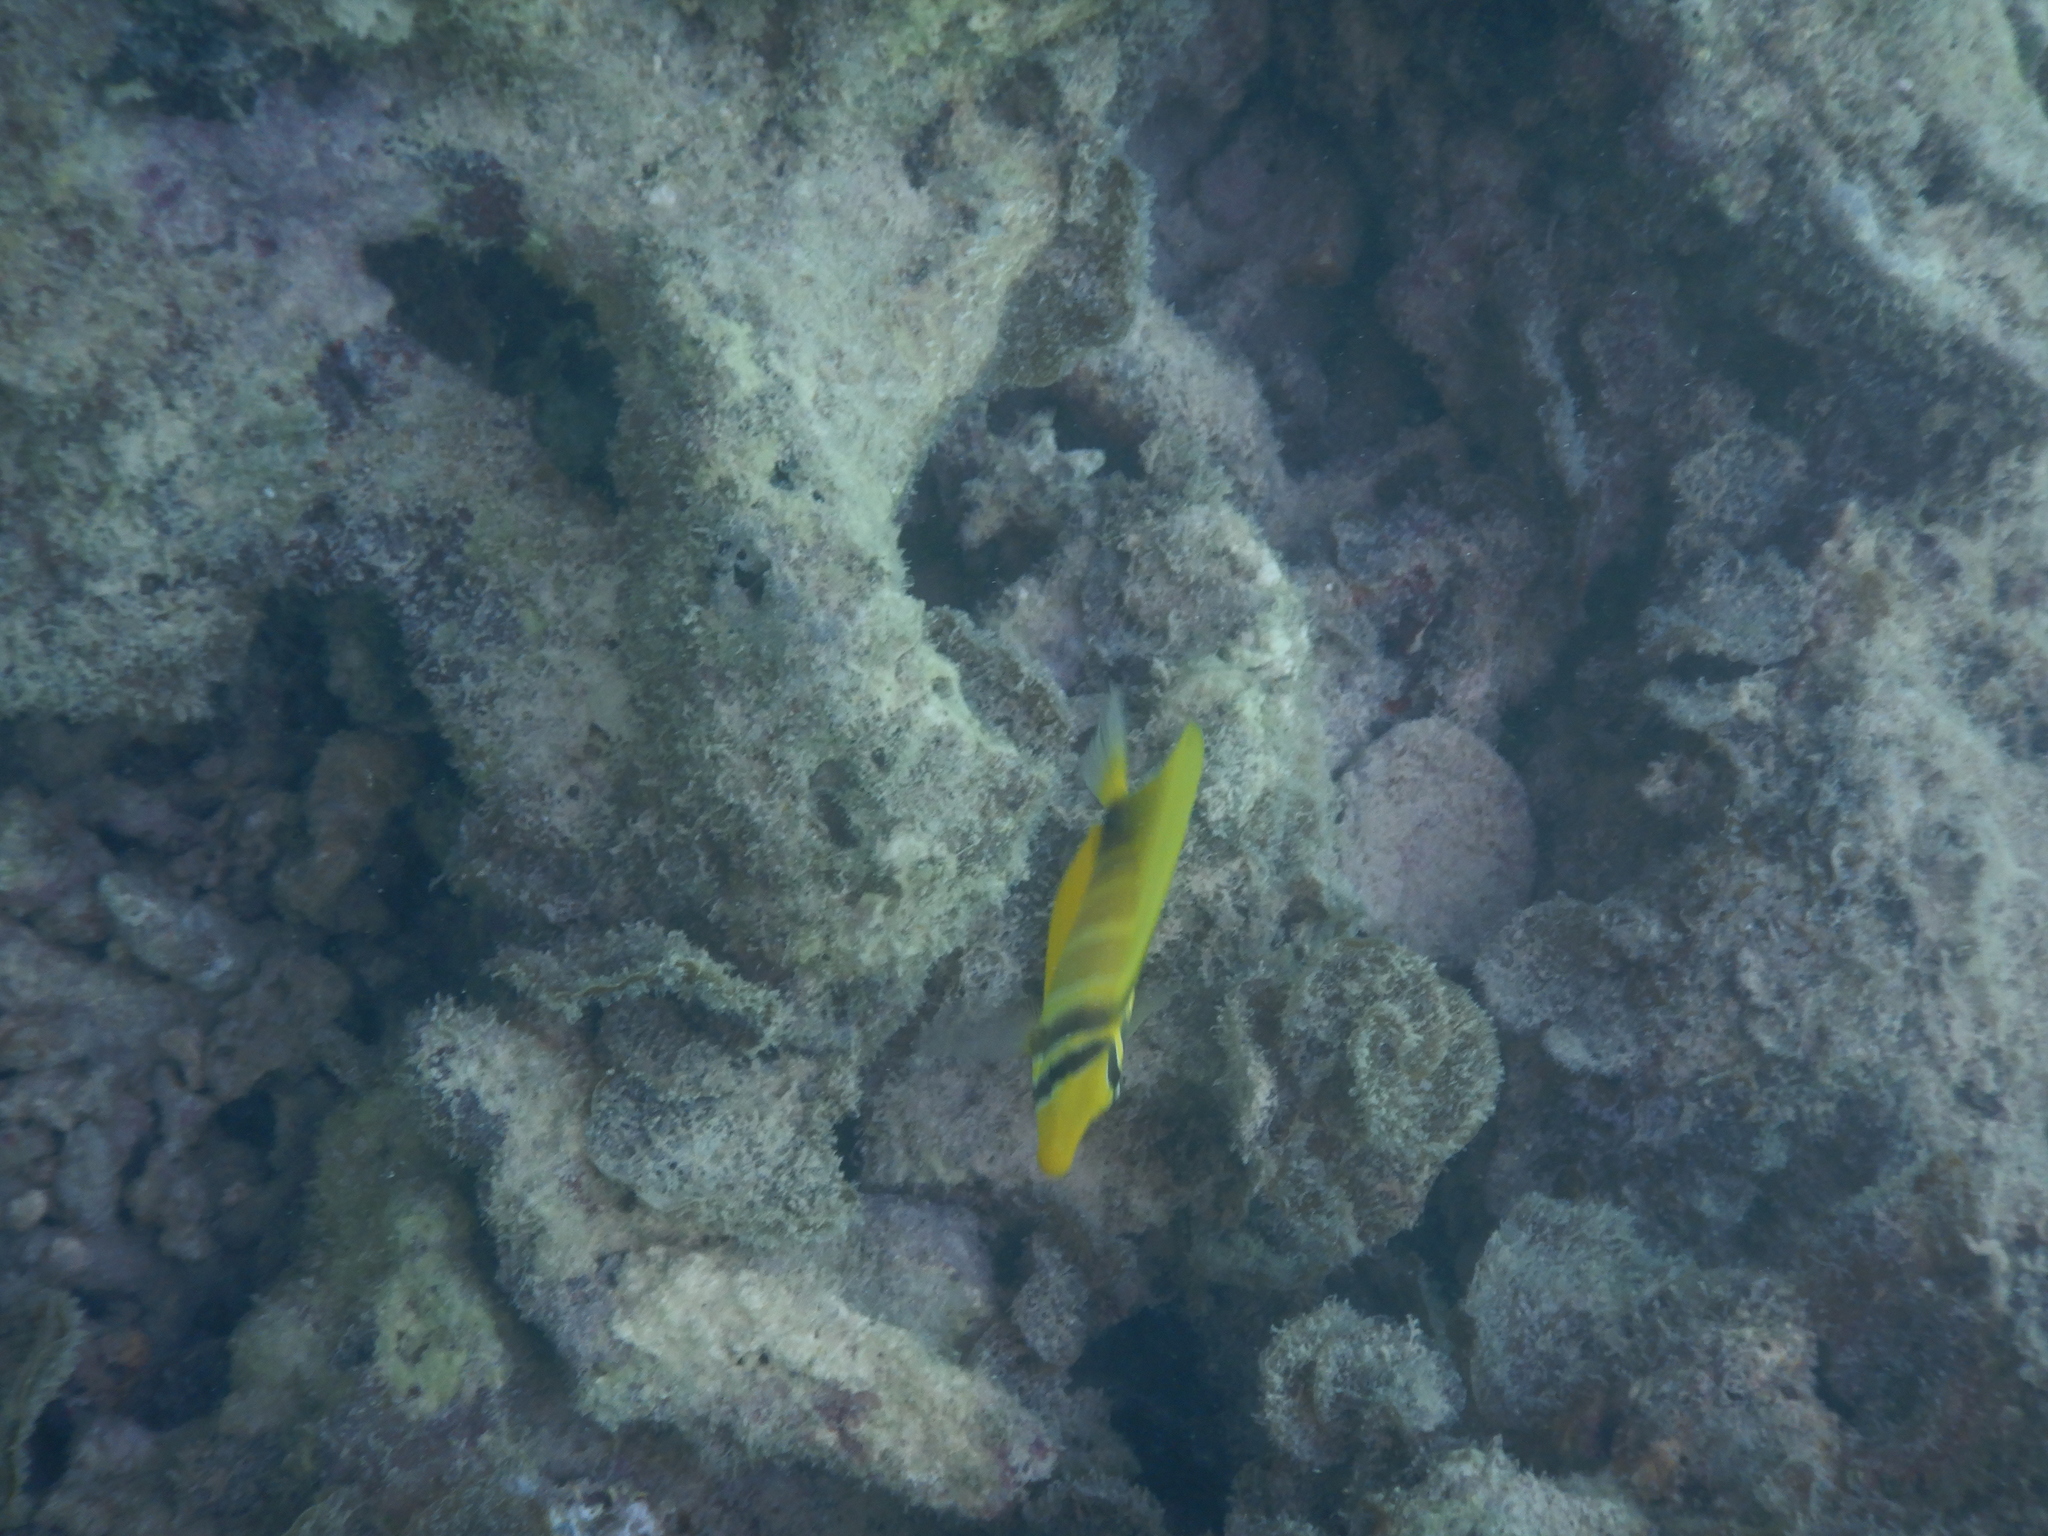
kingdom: Animalia
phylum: Chordata
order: Perciformes
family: Acanthuridae
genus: Zebrasoma
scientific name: Zebrasoma veliferum
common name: Sailfin surgeonfish
